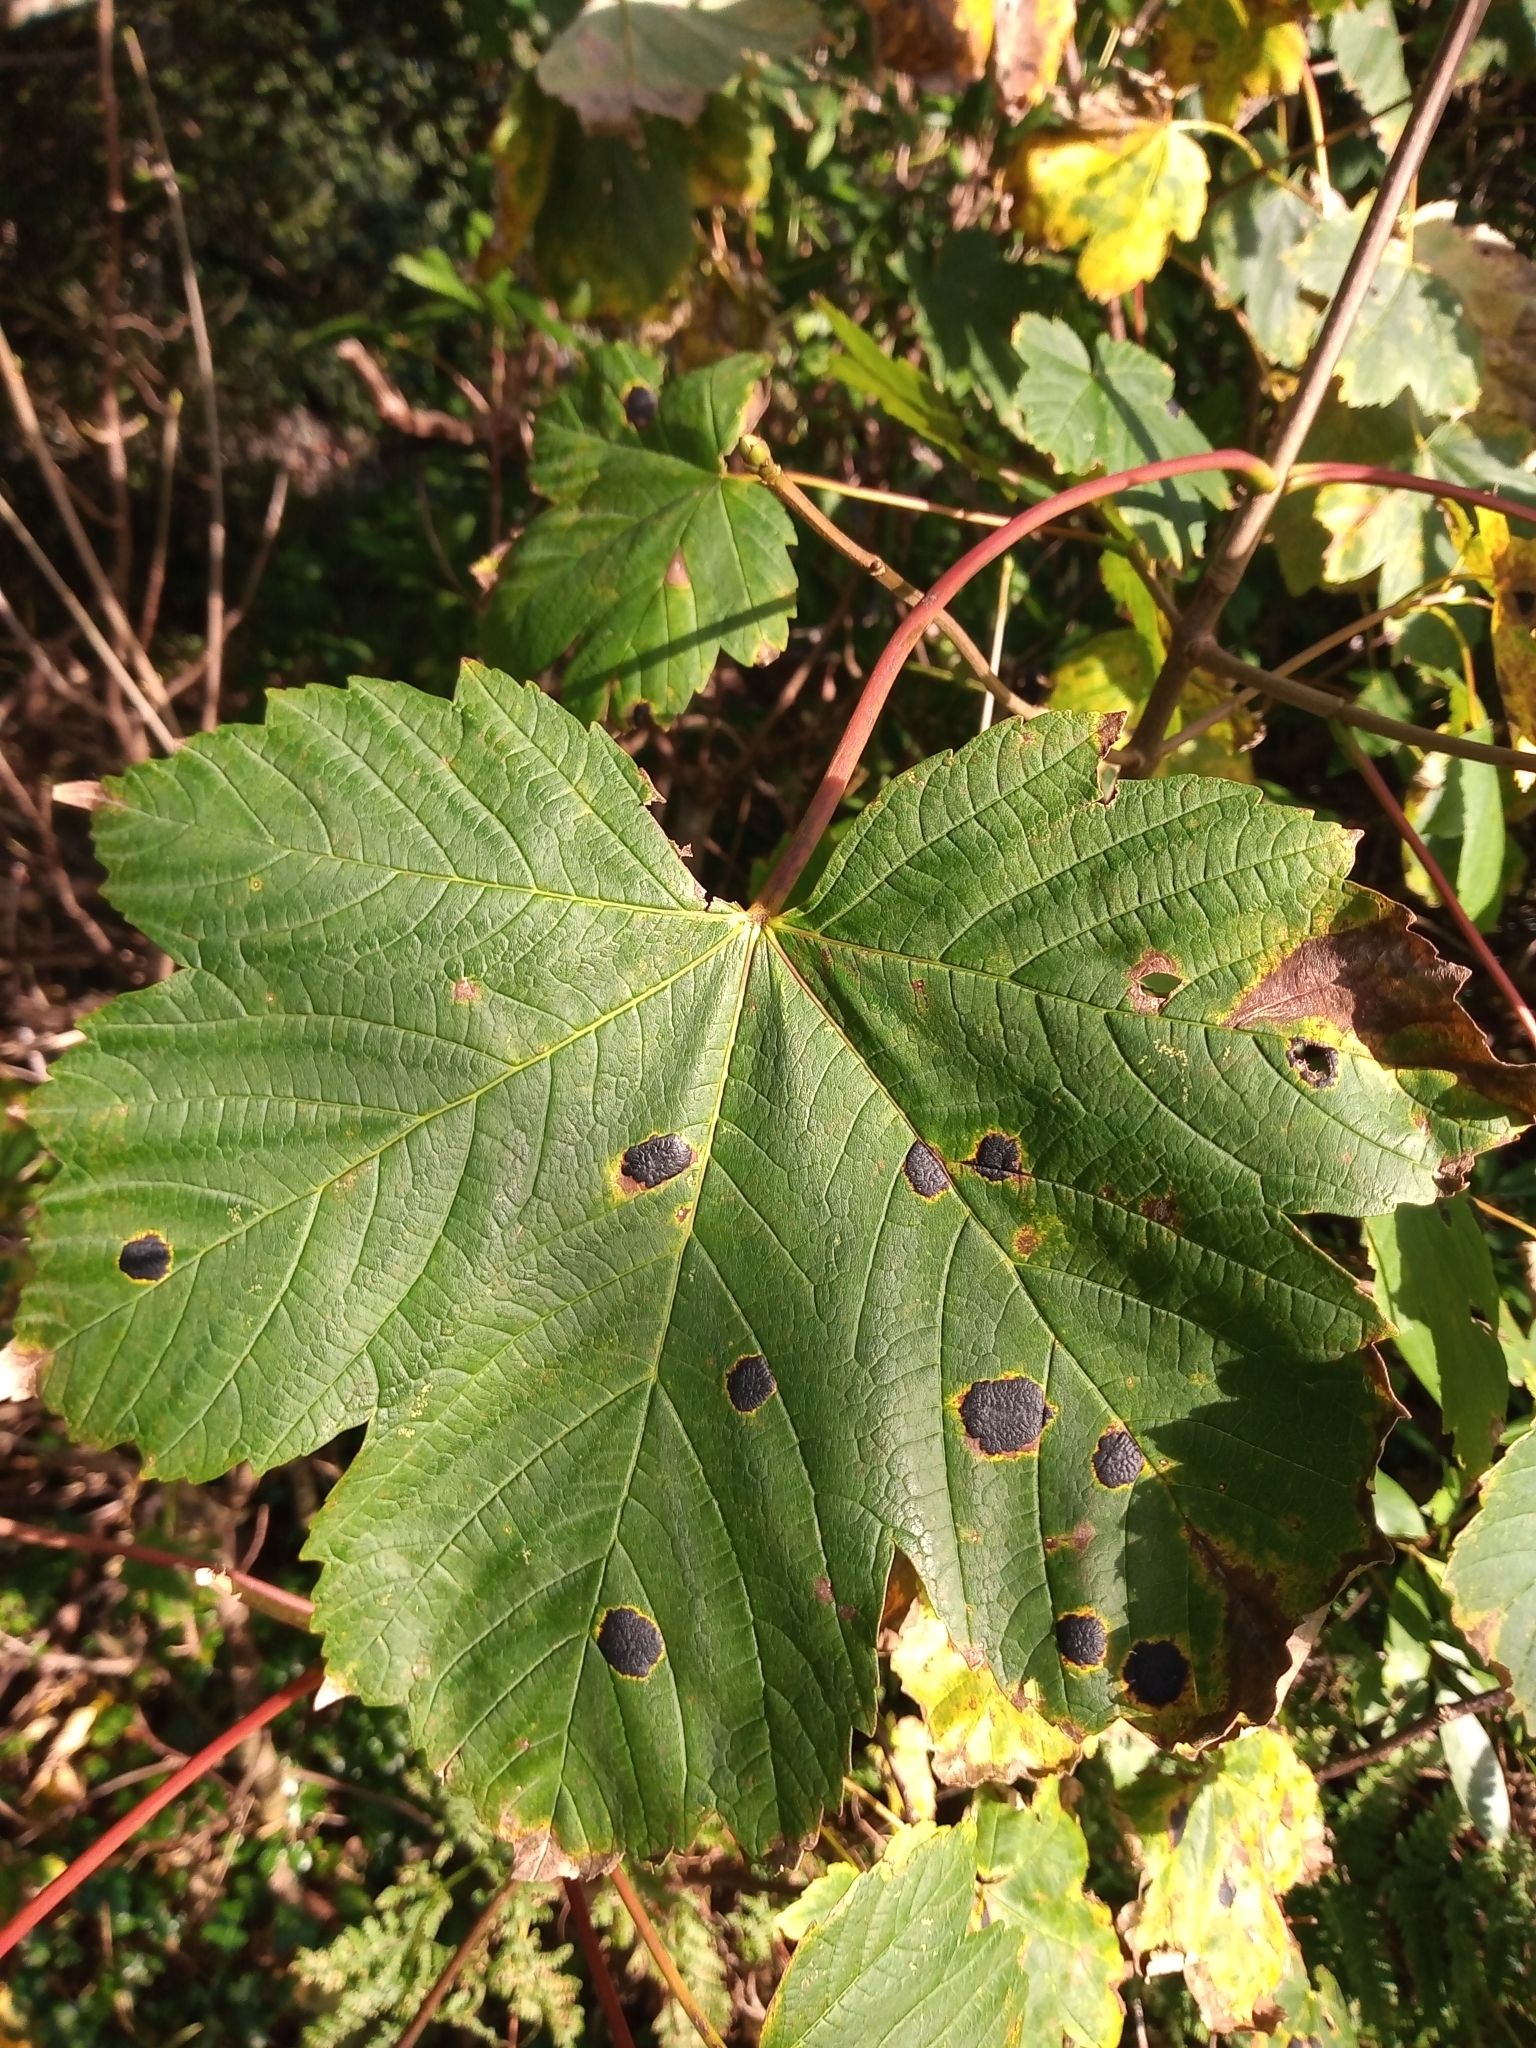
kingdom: Fungi
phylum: Ascomycota
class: Leotiomycetes
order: Rhytismatales
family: Rhytismataceae
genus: Rhytisma
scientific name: Rhytisma acerinum
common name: European tar spot
